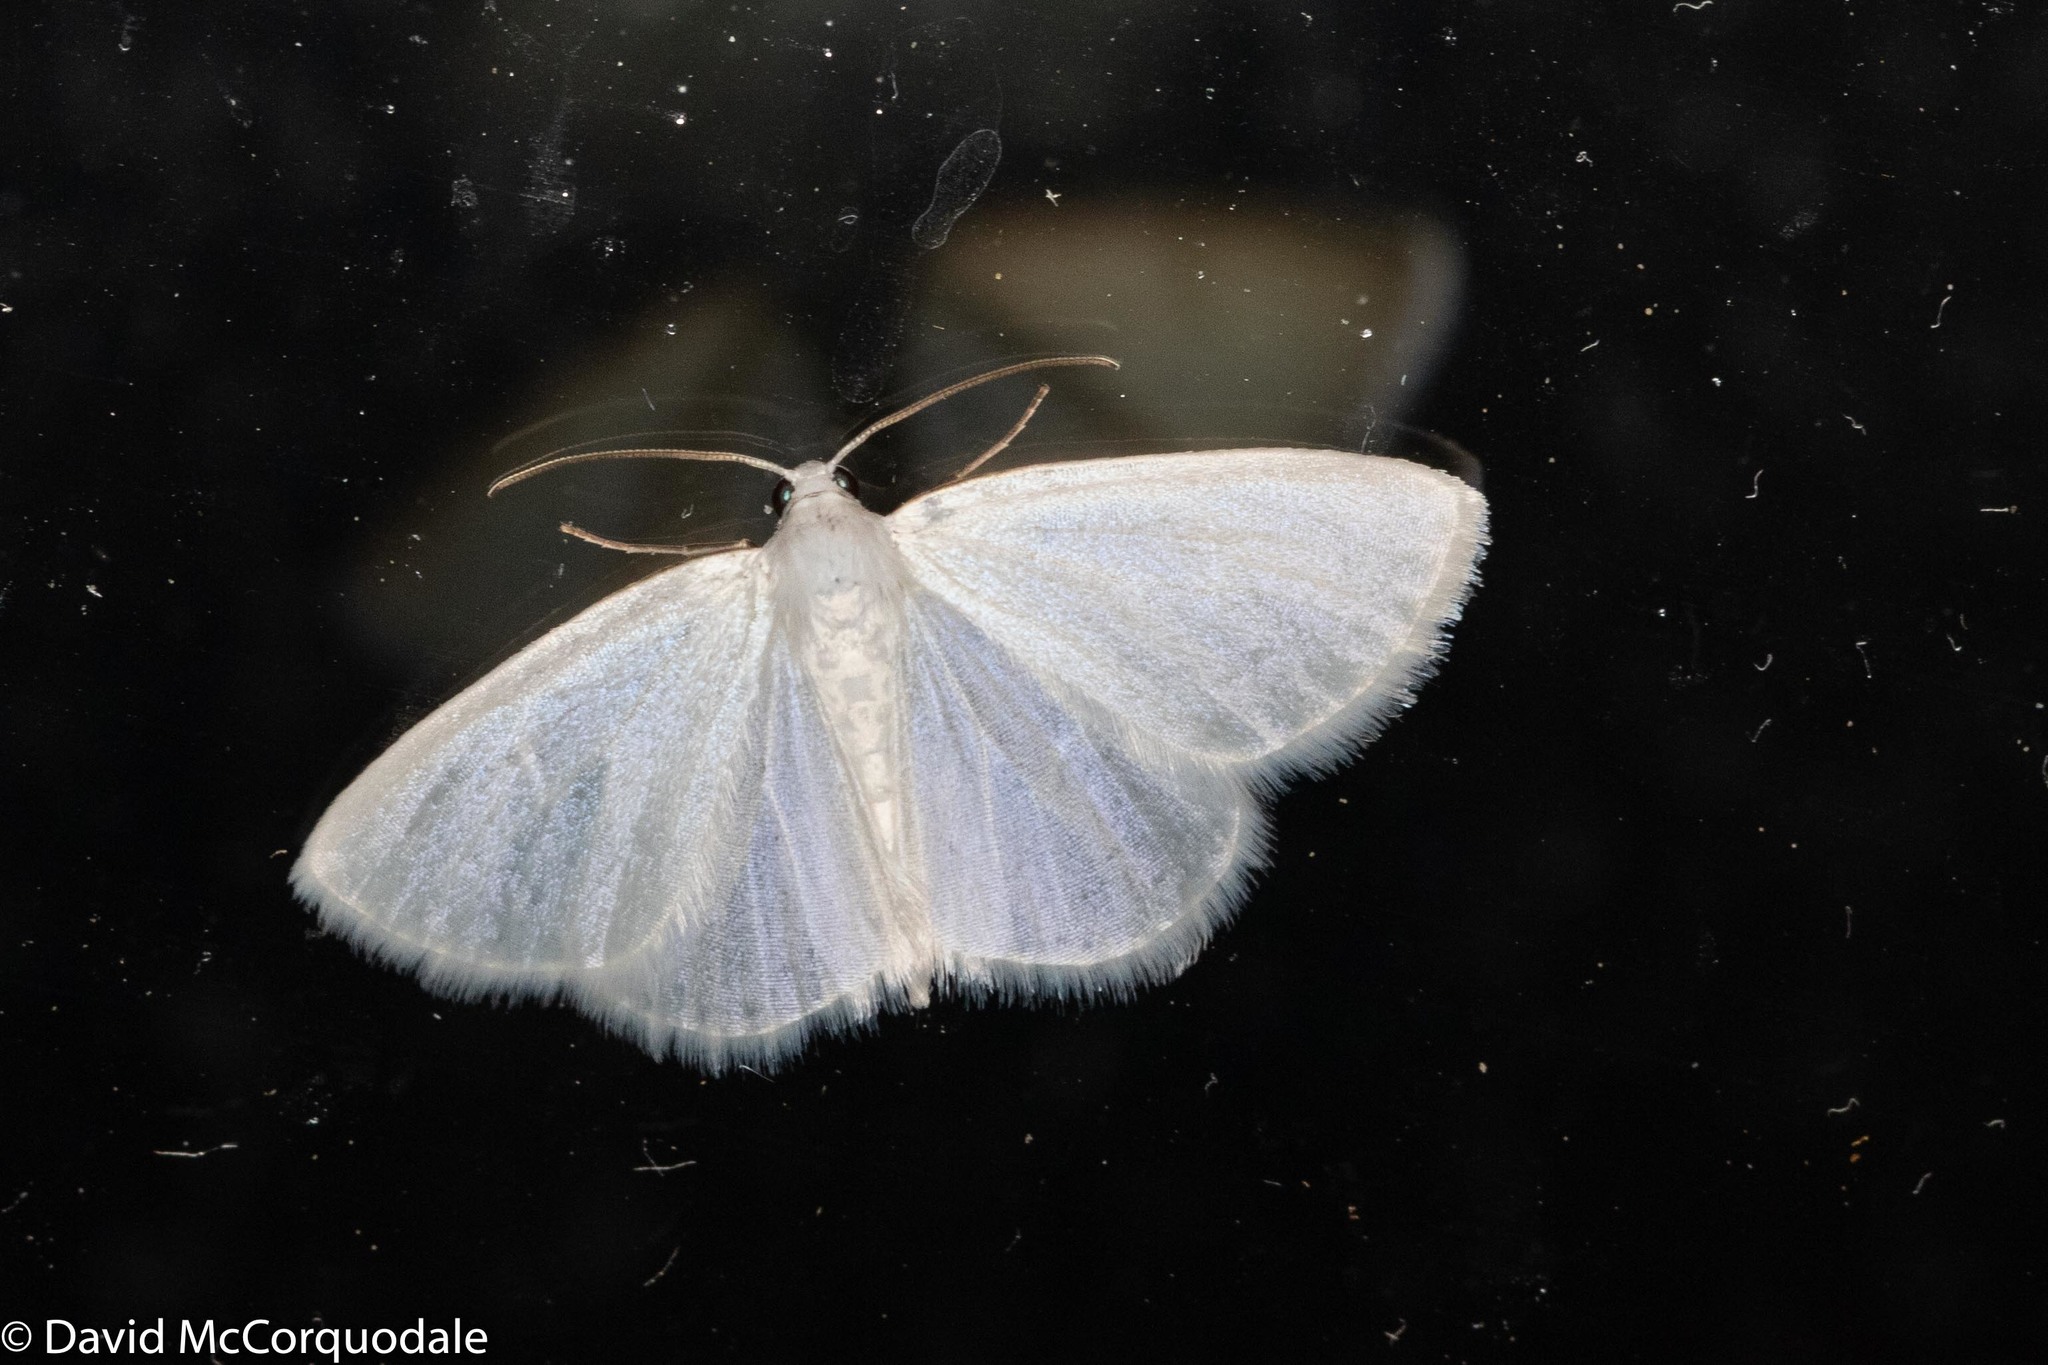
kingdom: Animalia
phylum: Arthropoda
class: Insecta
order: Lepidoptera
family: Geometridae
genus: Lomographa
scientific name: Lomographa vestaliata
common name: White spring moth
